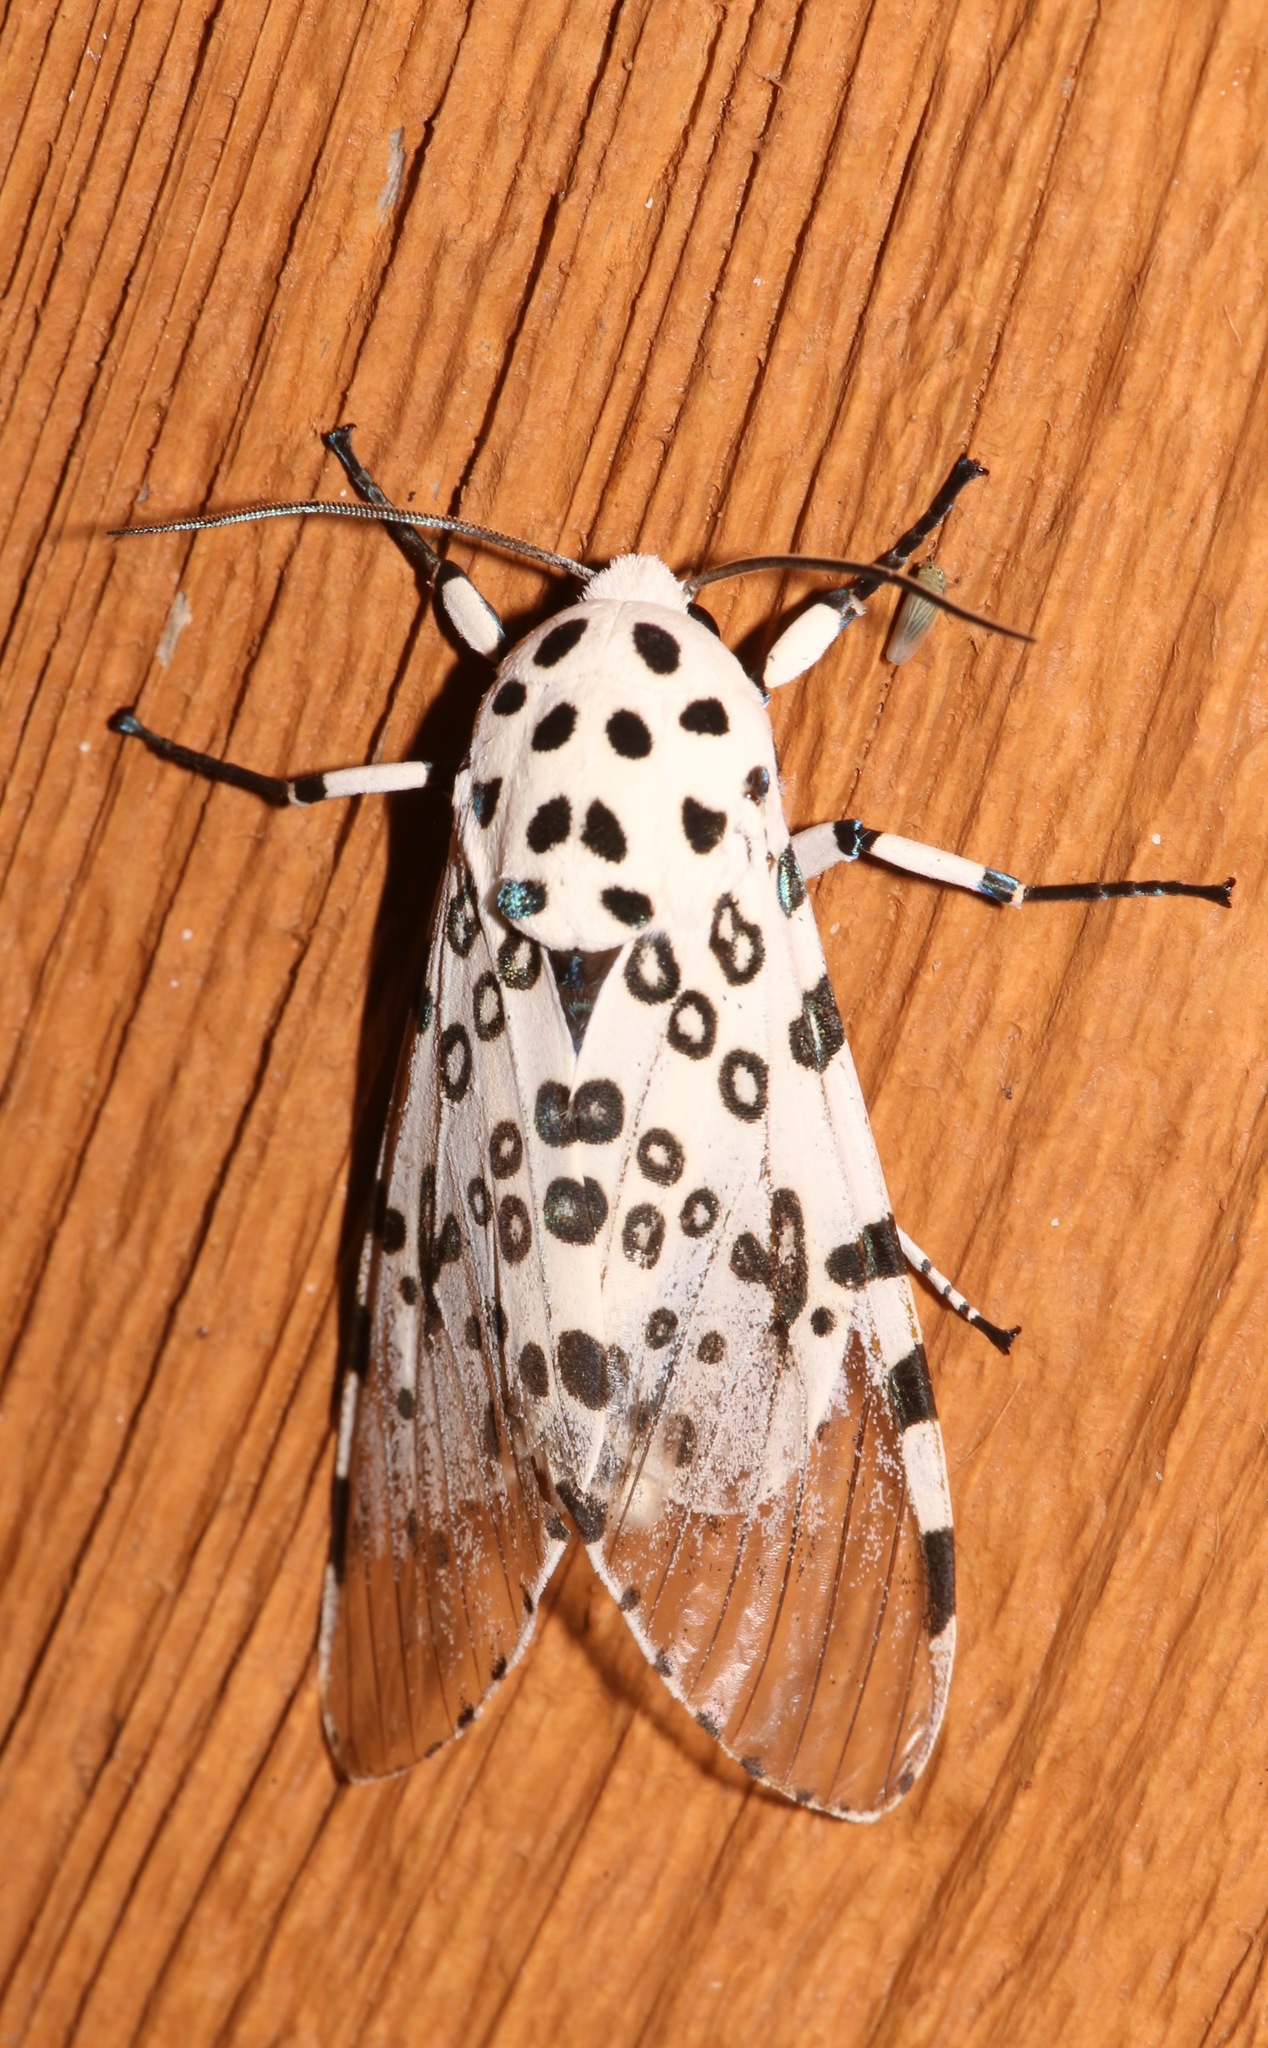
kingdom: Animalia
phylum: Arthropoda
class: Insecta
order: Lepidoptera
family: Erebidae
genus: Hypercompe
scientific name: Hypercompe scribonia
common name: Giant leopard moth
